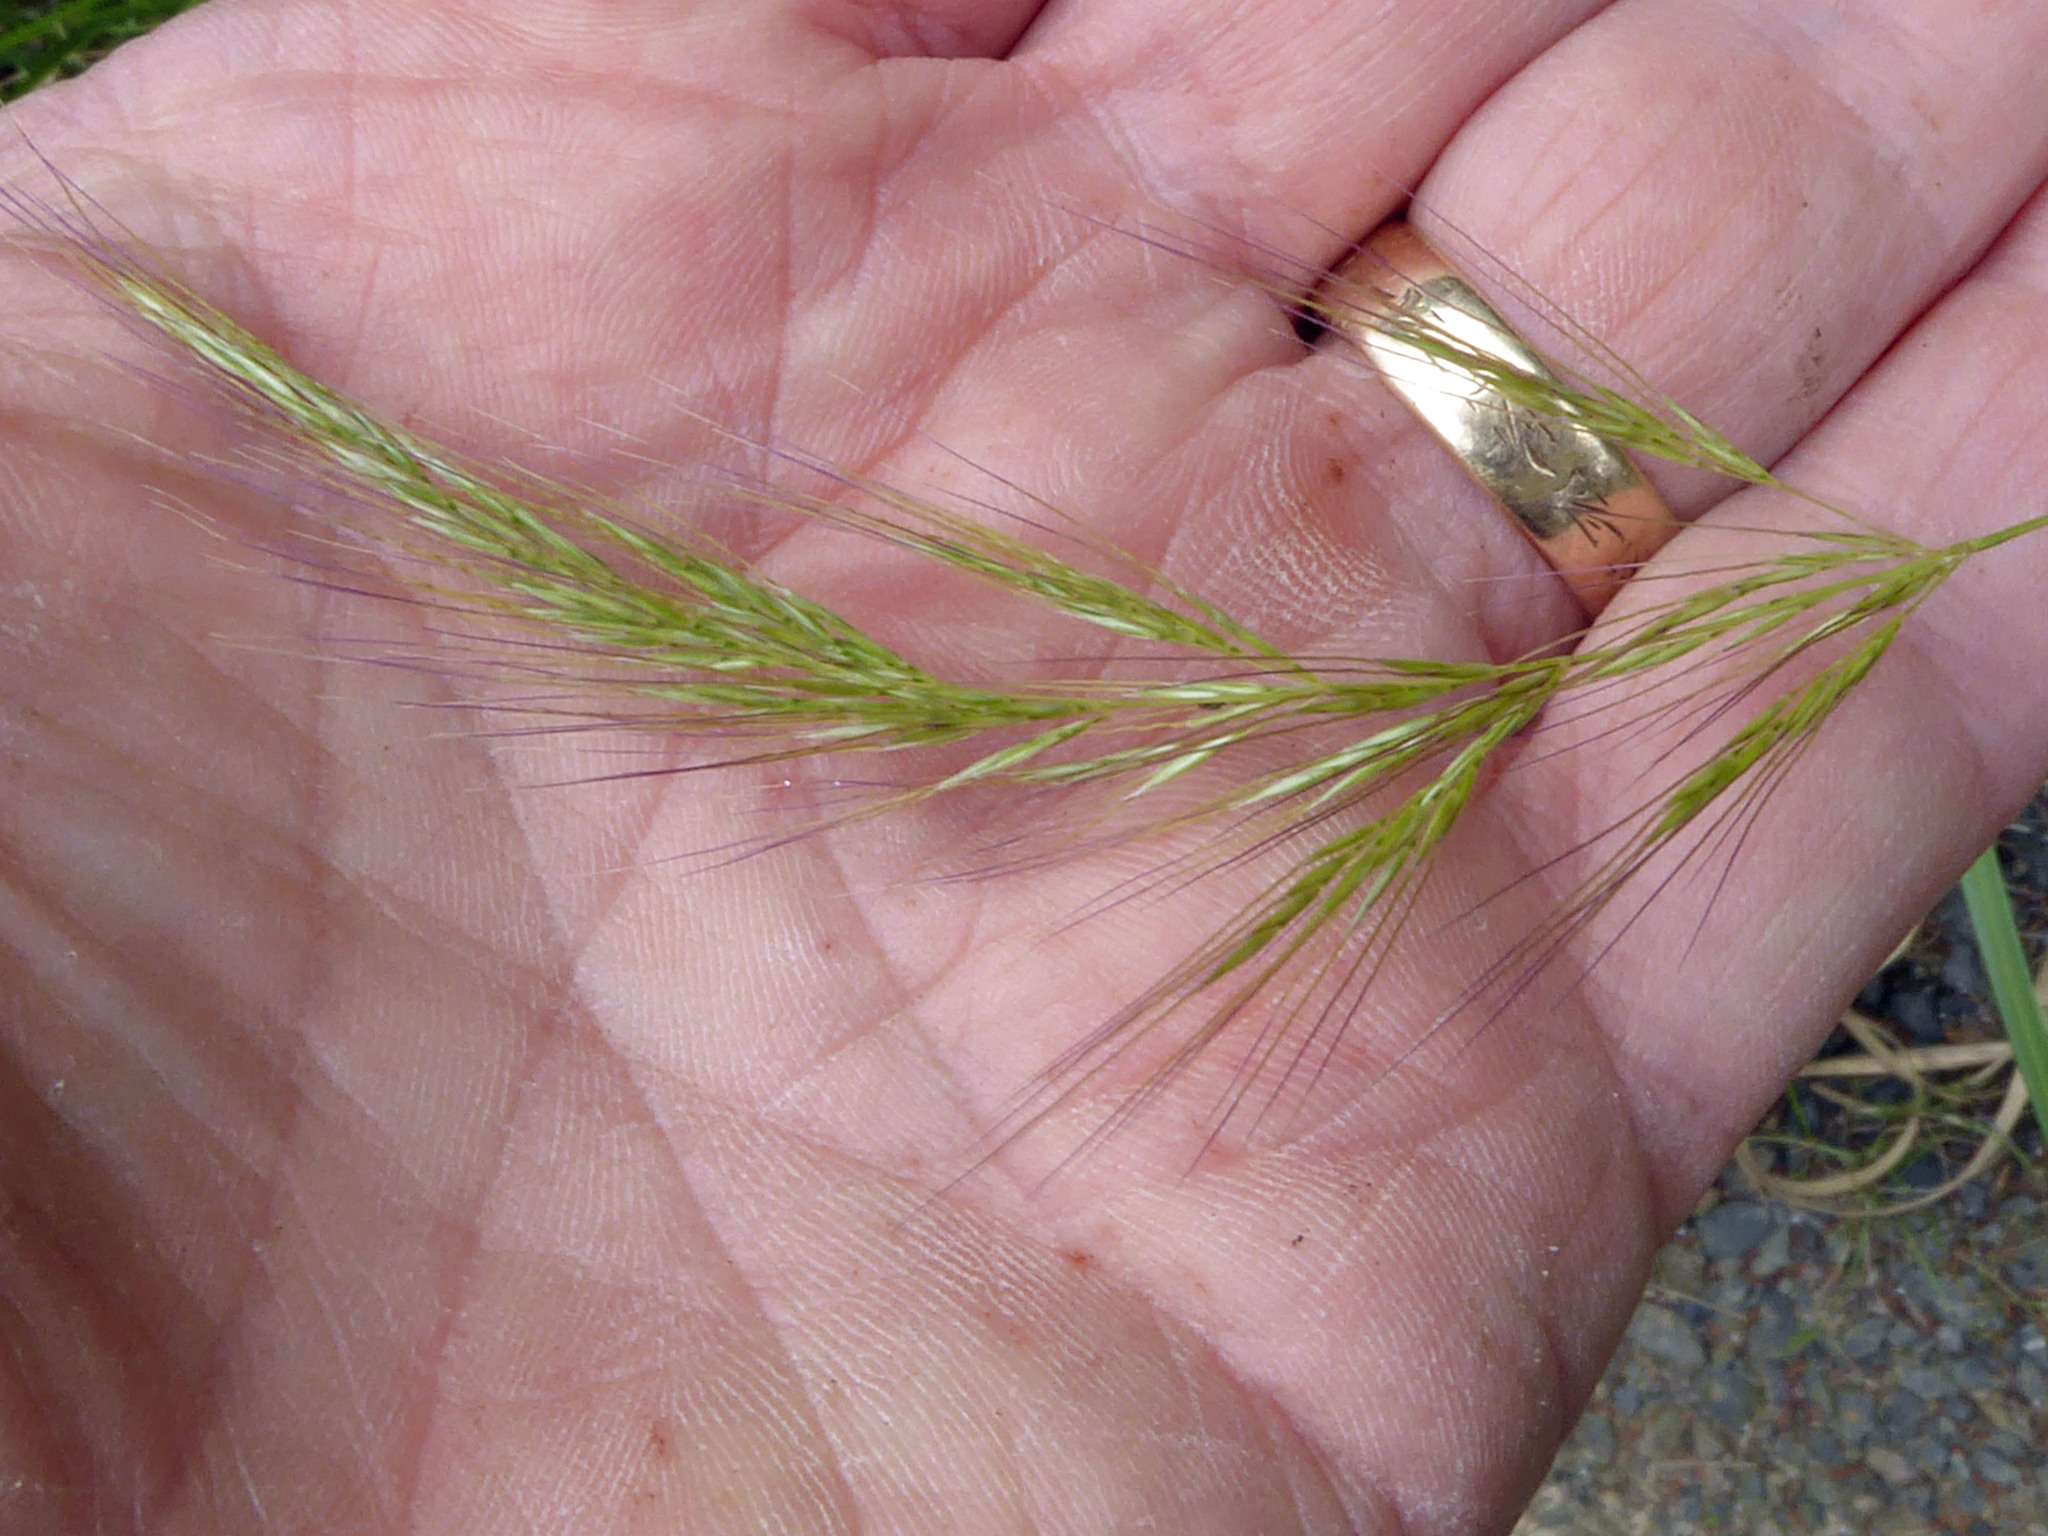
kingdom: Plantae
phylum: Tracheophyta
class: Liliopsida
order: Poales
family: Poaceae
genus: Dichelachne
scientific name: Dichelachne inaequiglumis
